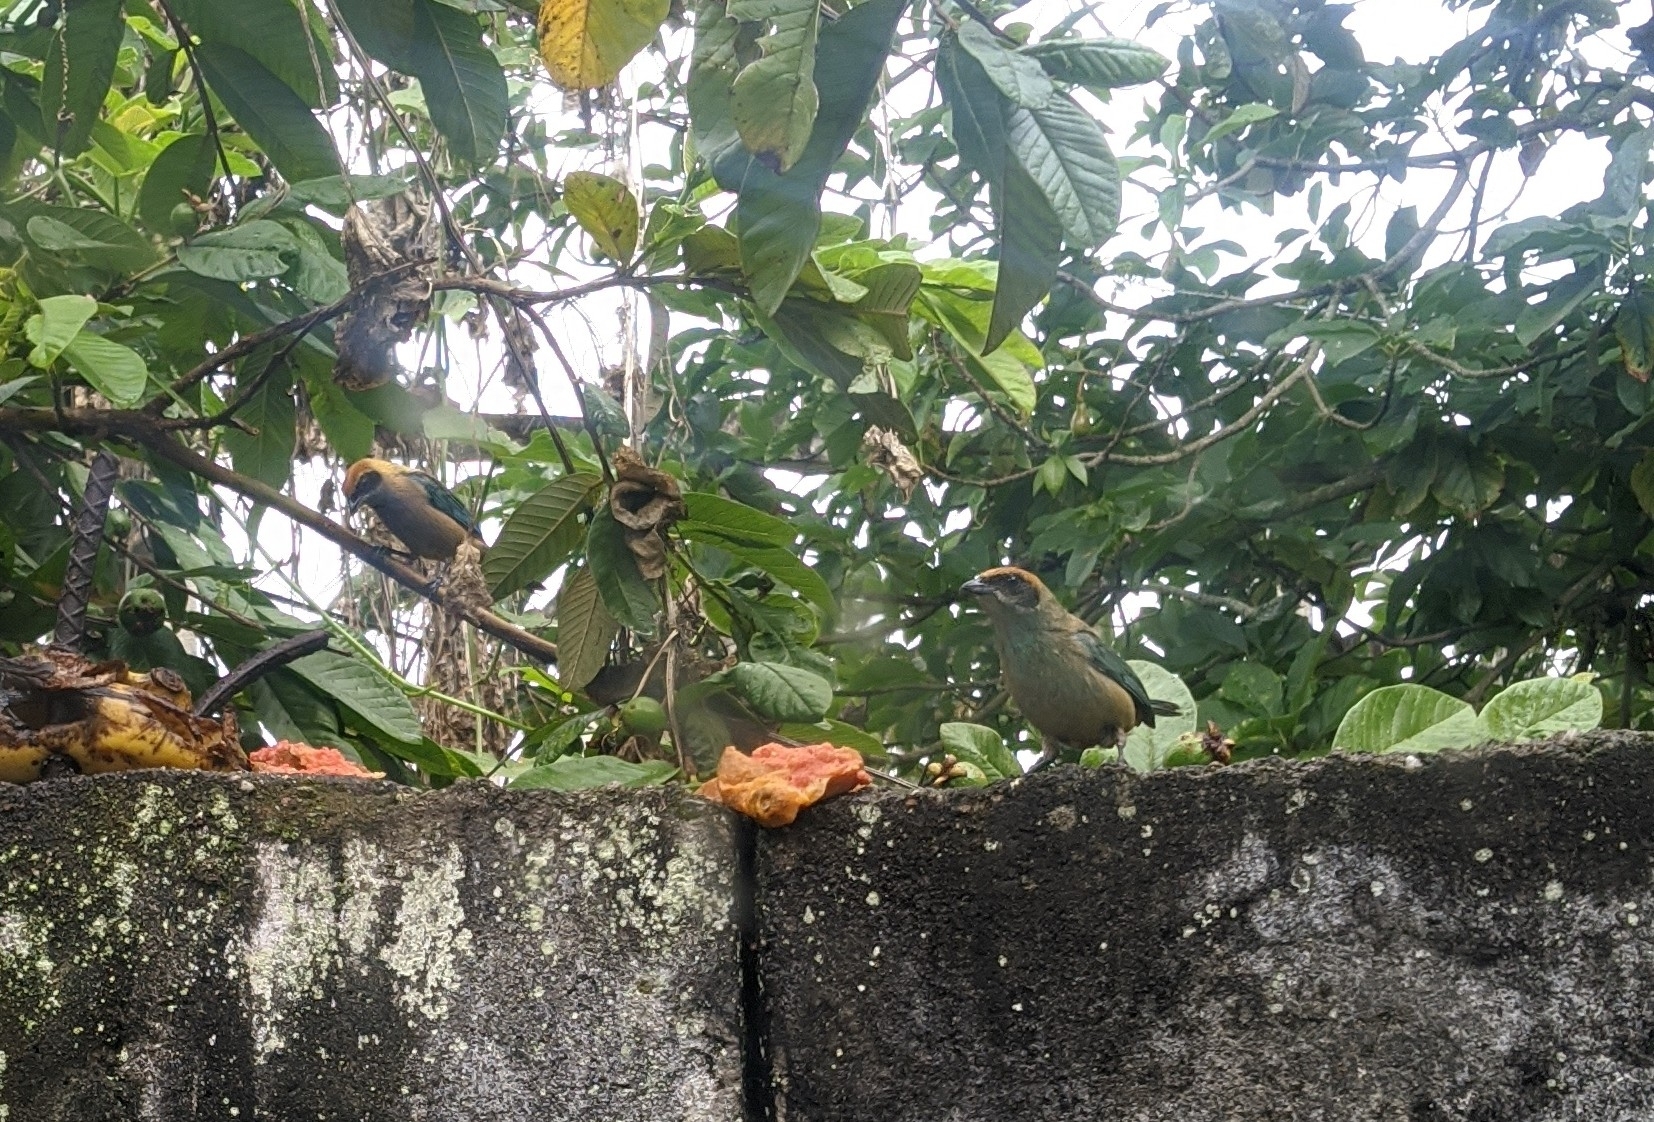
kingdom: Animalia
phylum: Chordata
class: Aves
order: Passeriformes
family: Thraupidae
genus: Stilpnia
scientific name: Stilpnia cayana
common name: Burnished-buff tanager
